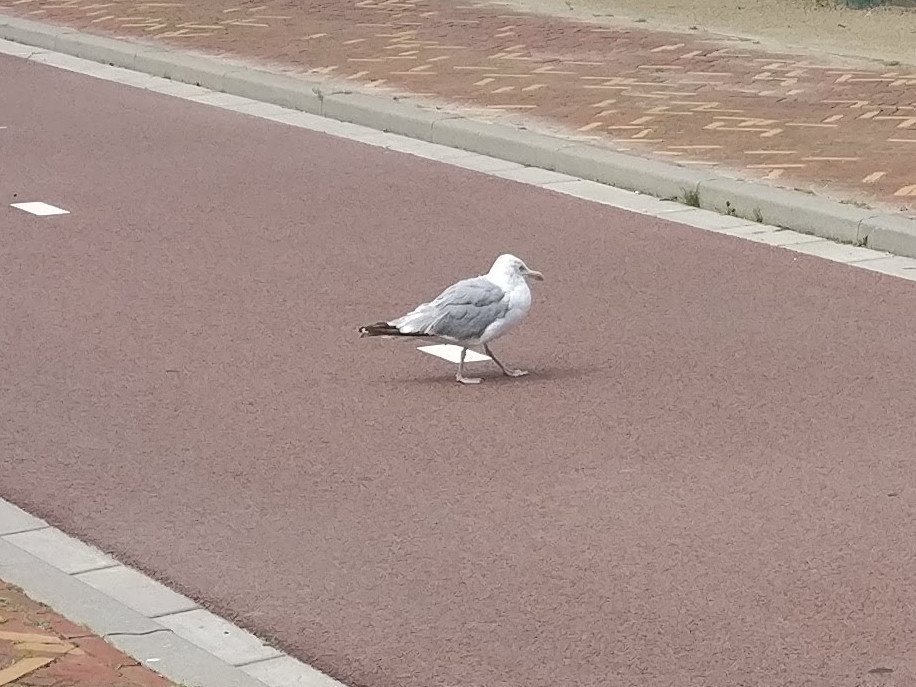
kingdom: Animalia
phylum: Chordata
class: Aves
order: Charadriiformes
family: Laridae
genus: Larus
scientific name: Larus argentatus
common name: Herring gull
